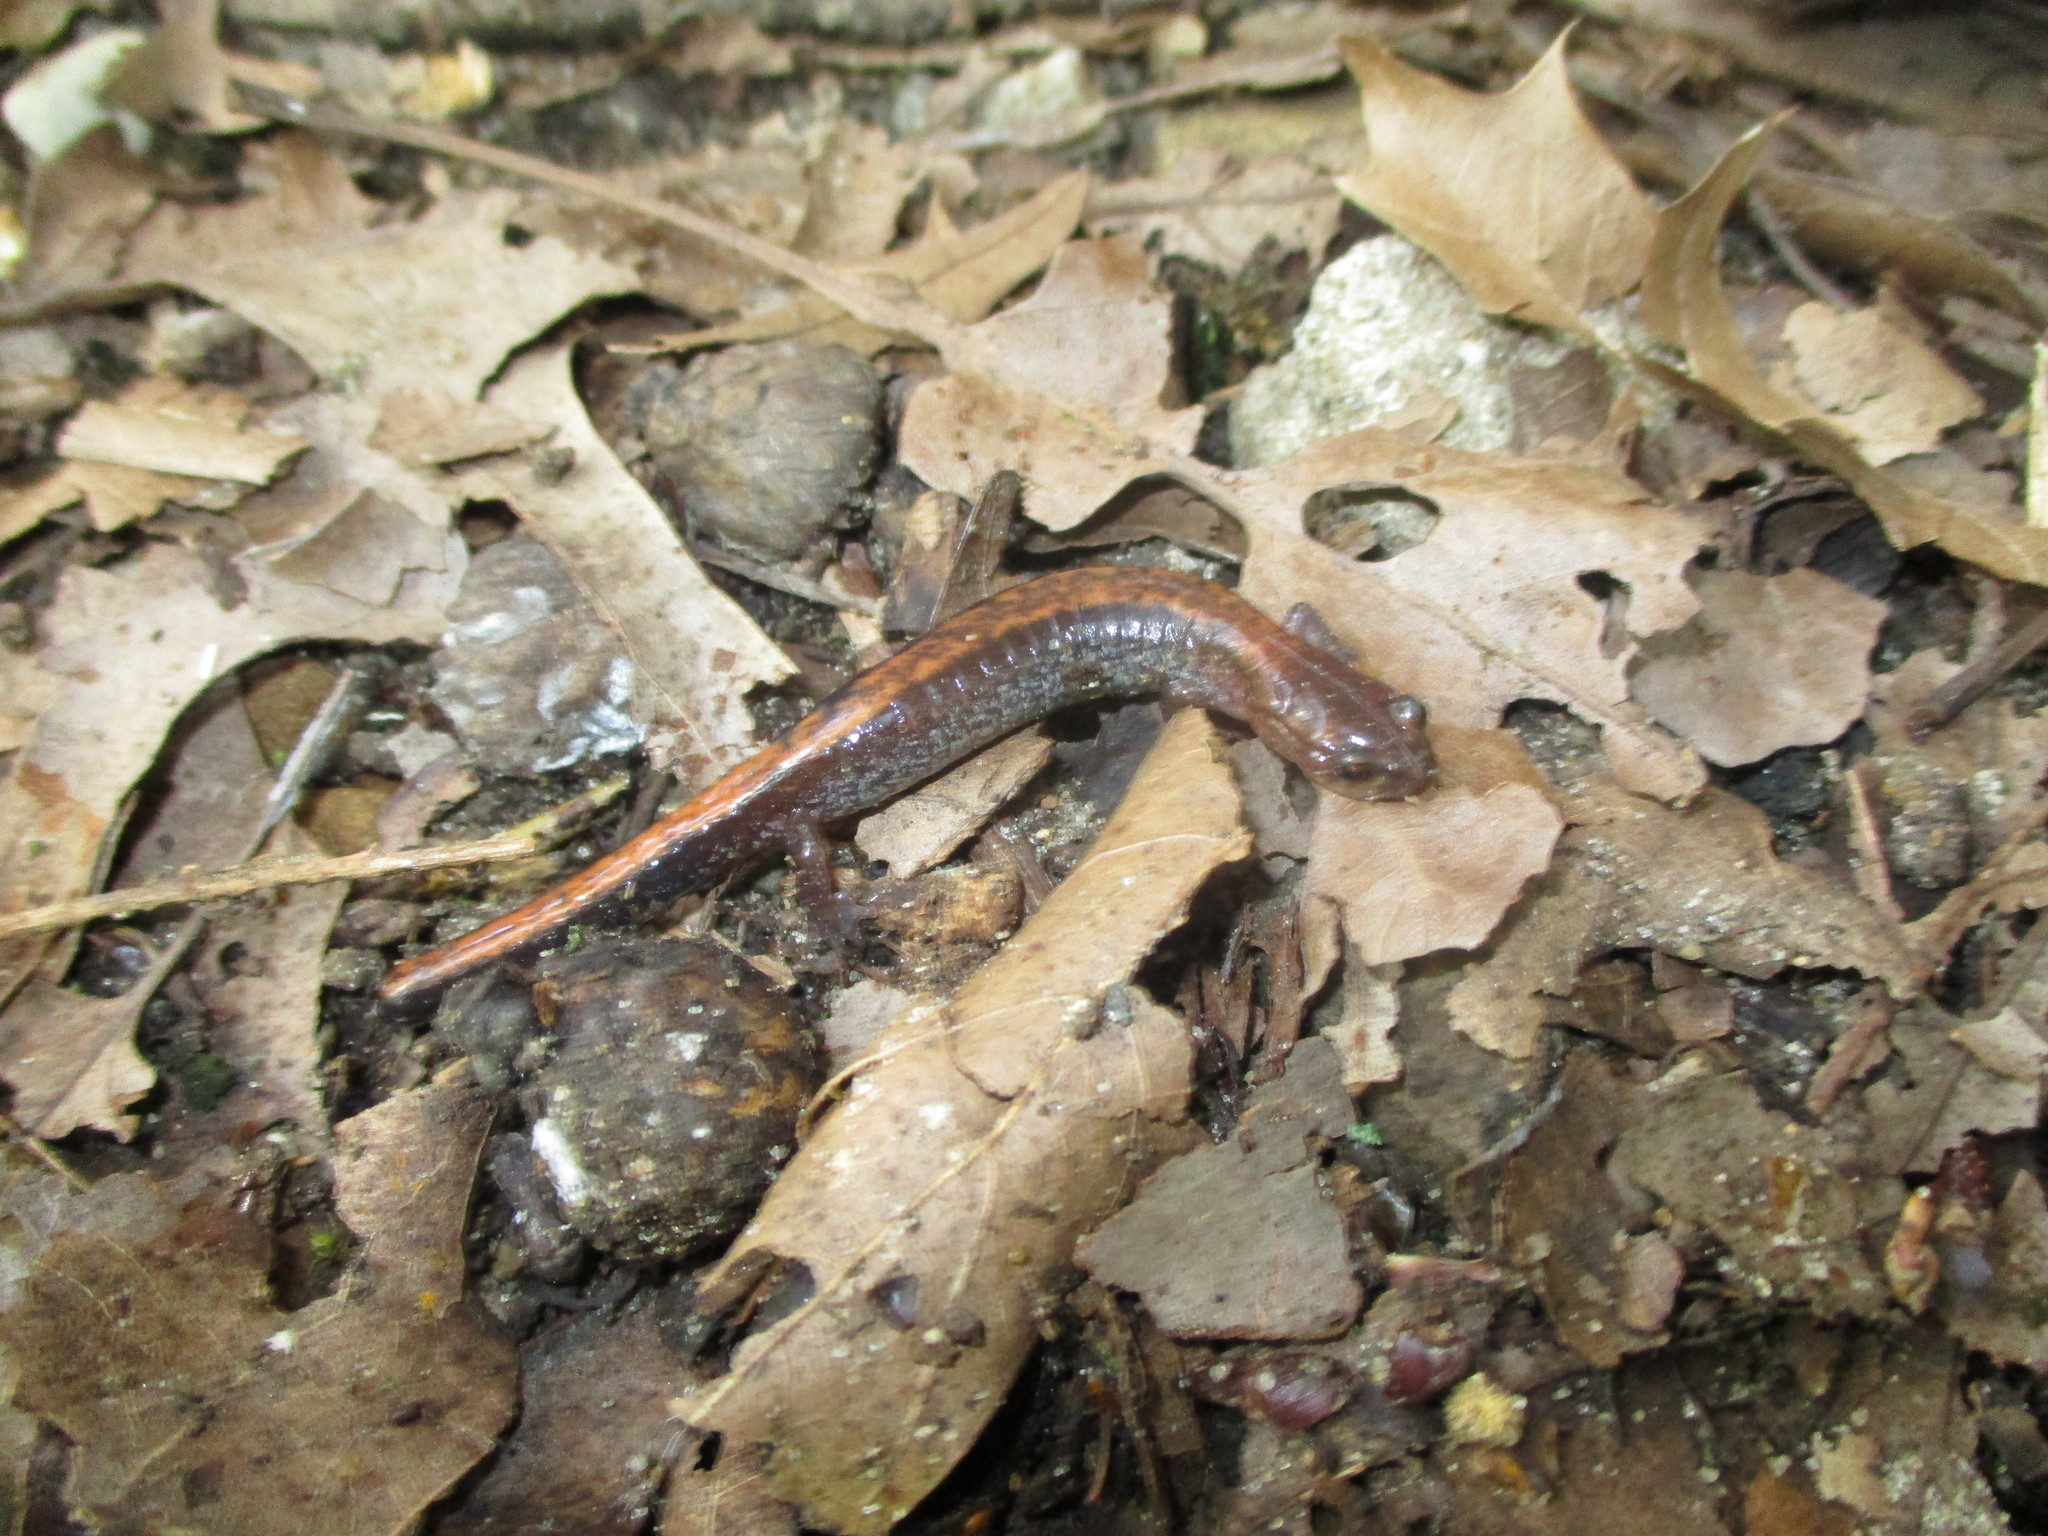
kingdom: Animalia
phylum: Chordata
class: Amphibia
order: Caudata
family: Plethodontidae
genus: Plethodon
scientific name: Plethodon cinereus
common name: Redback salamander
